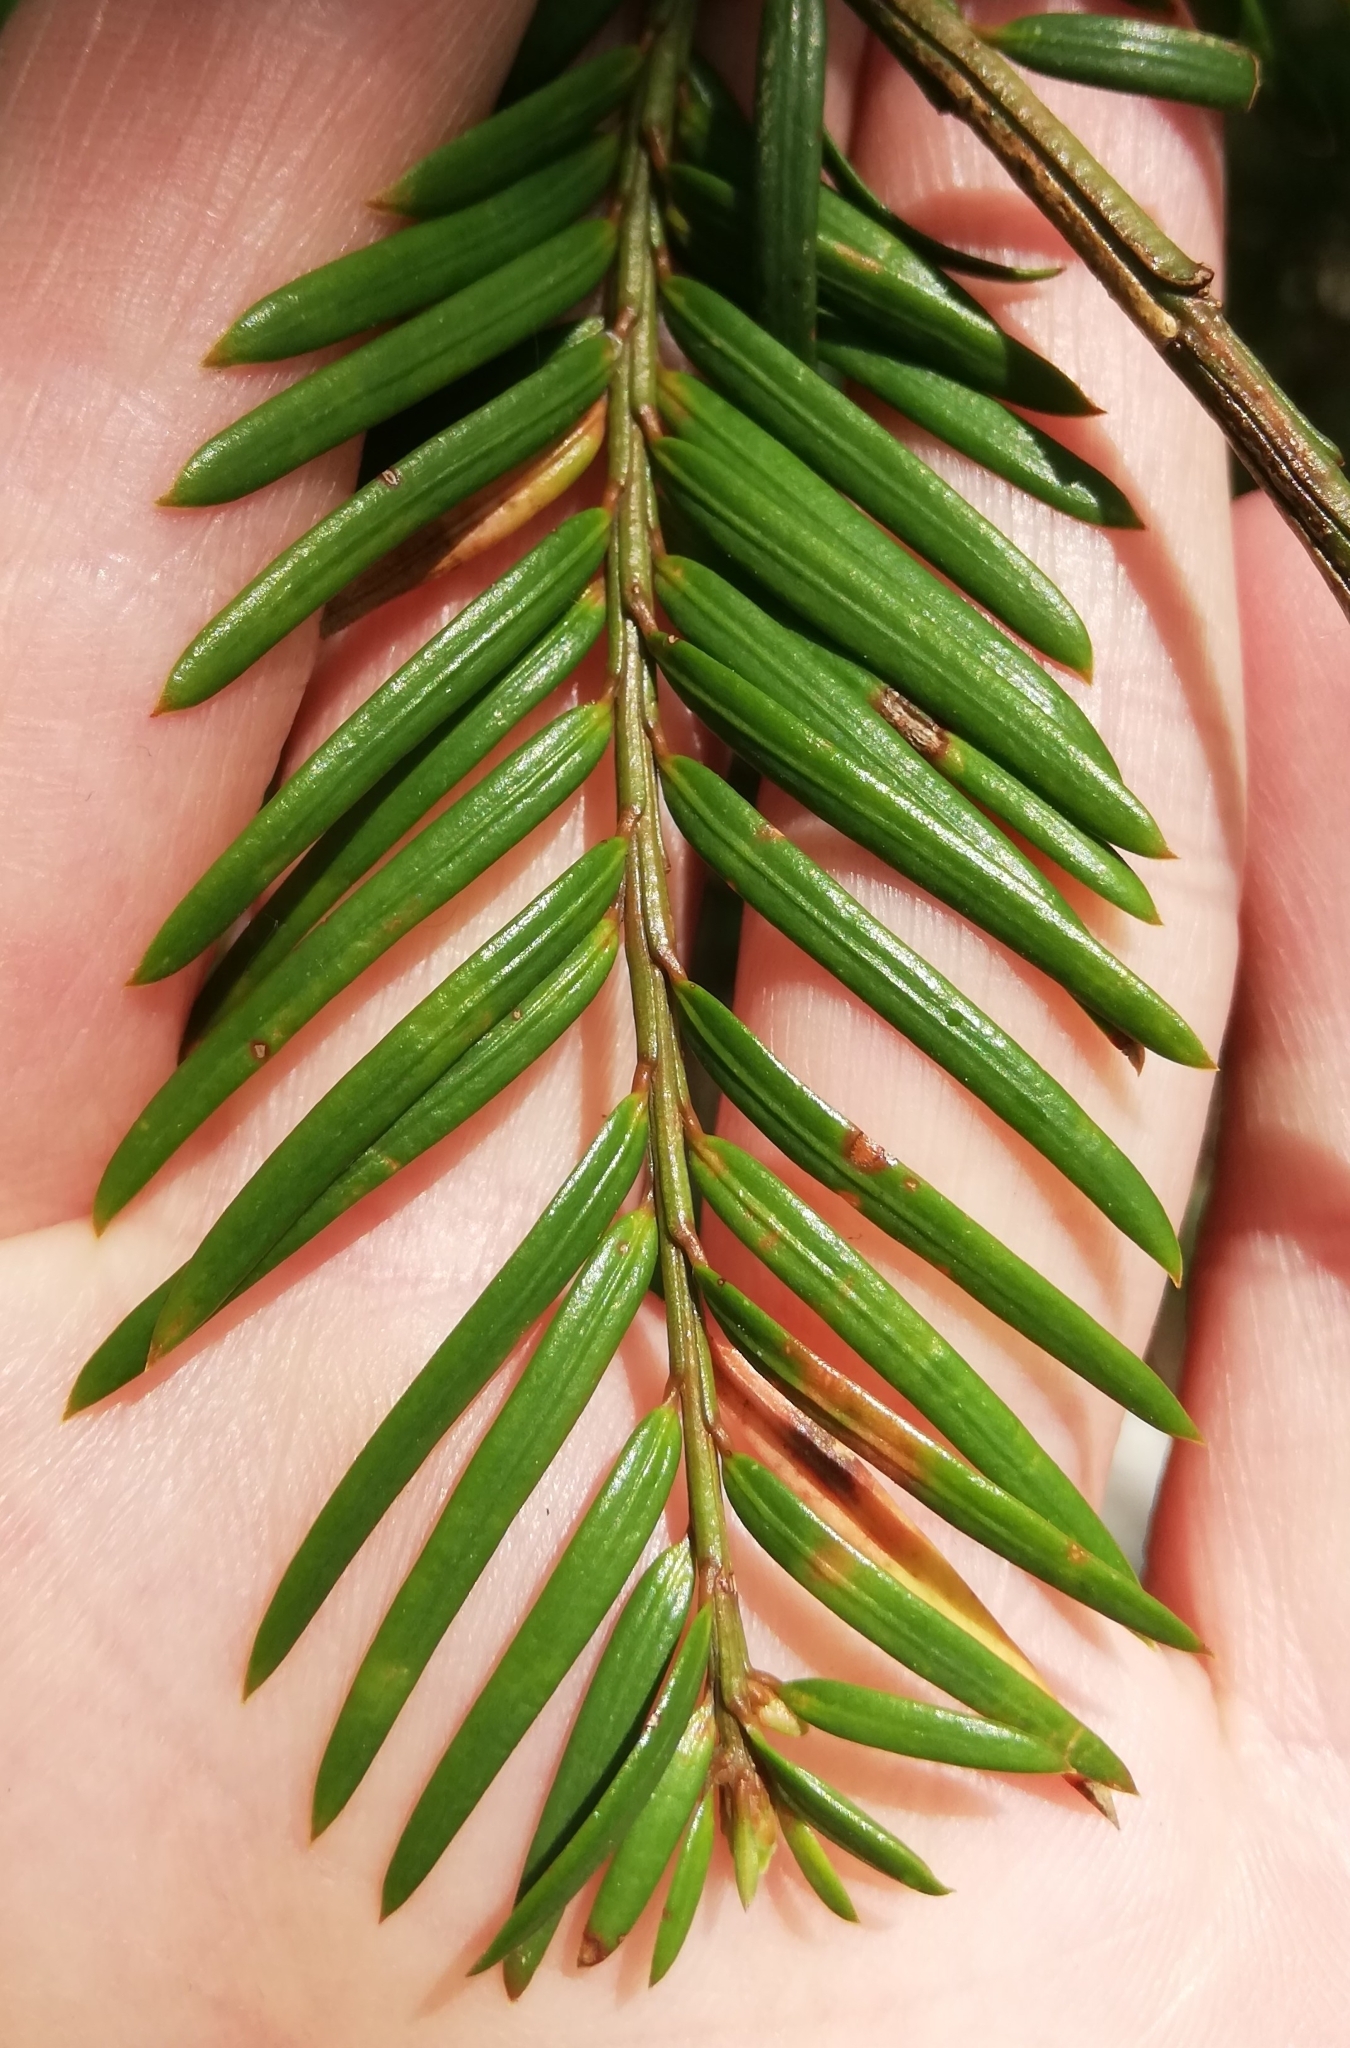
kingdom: Plantae
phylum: Tracheophyta
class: Pinopsida
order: Pinales
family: Taxaceae
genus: Taxus
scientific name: Taxus baccata
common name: Yew
